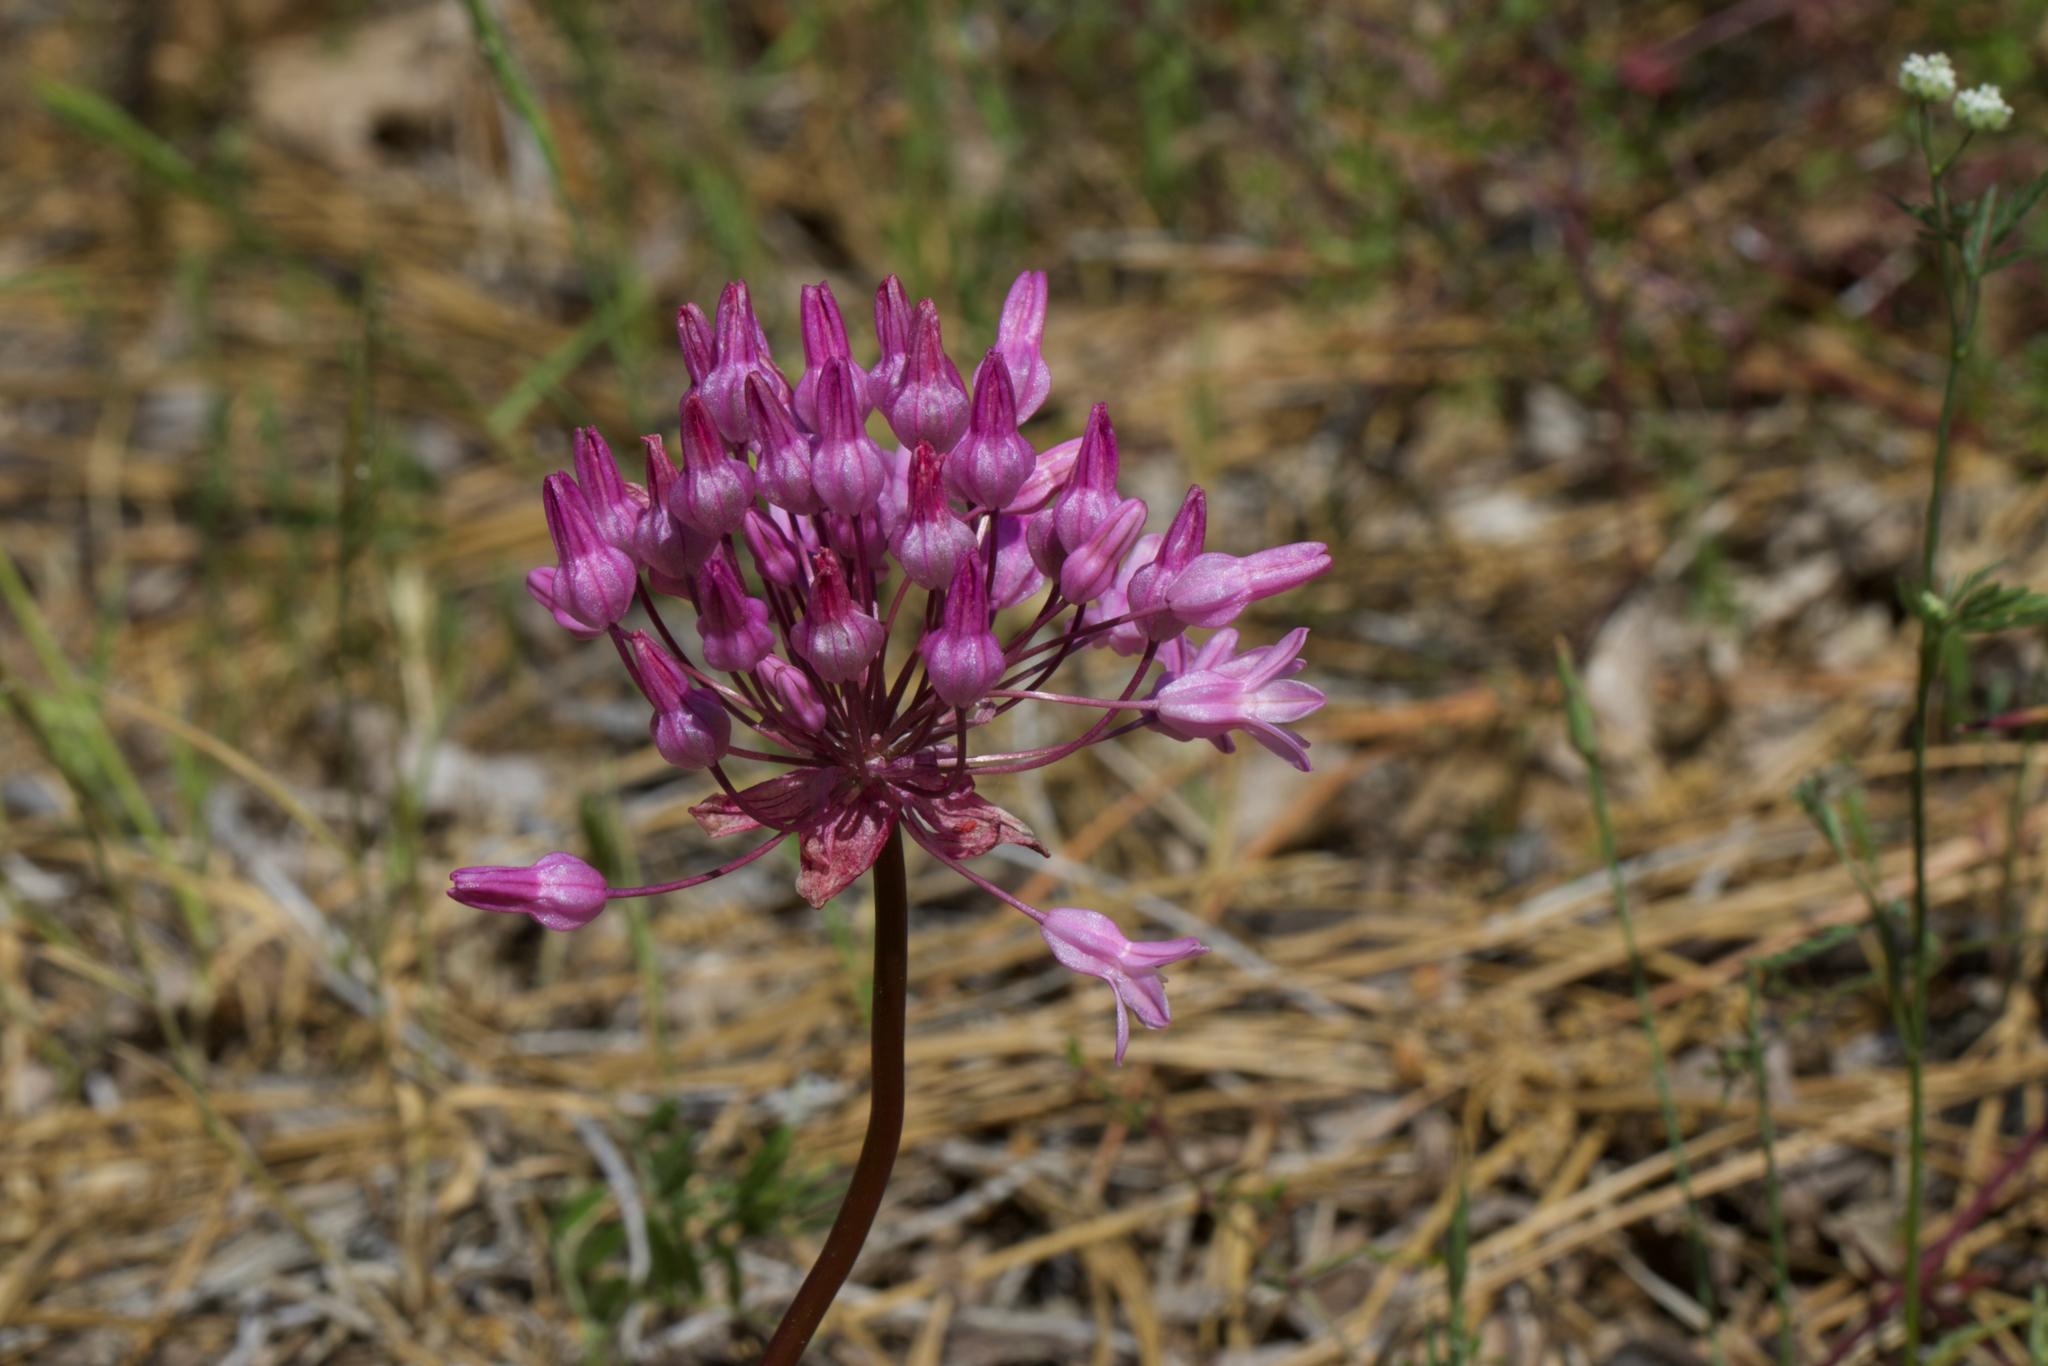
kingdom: Plantae
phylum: Tracheophyta
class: Liliopsida
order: Asparagales
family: Asparagaceae
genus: Dichelostemma
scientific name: Dichelostemma volubile
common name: Trining brodiaea
